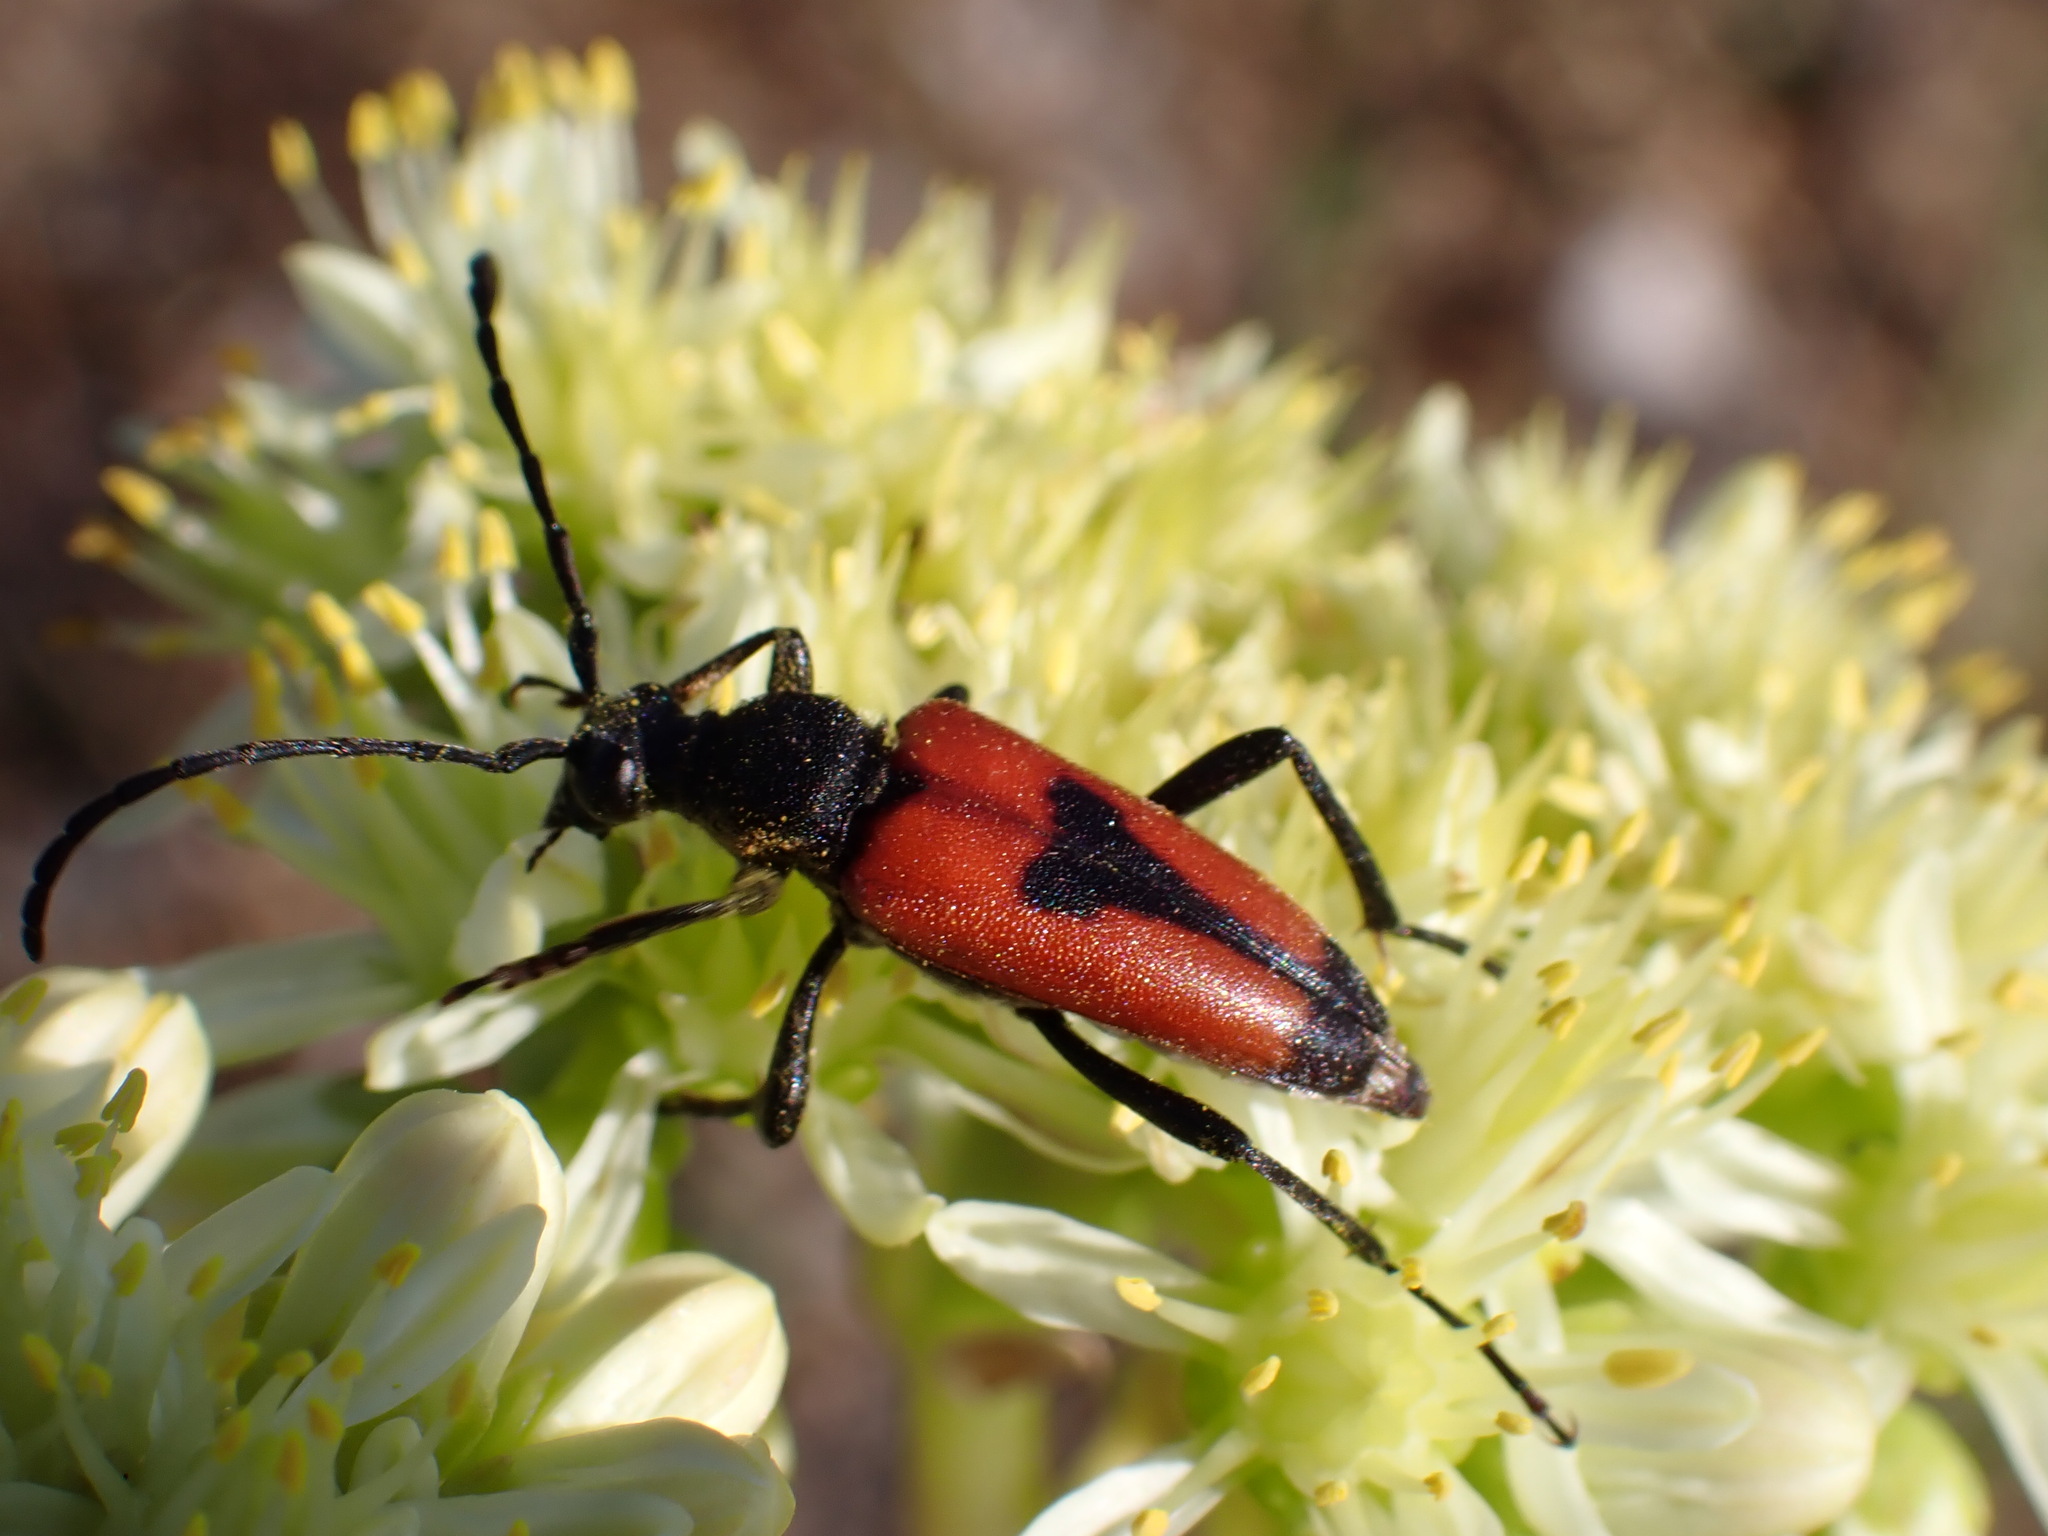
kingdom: Animalia
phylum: Arthropoda
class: Insecta
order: Coleoptera
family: Cerambycidae
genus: Stictoleptura
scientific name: Stictoleptura cordigera
